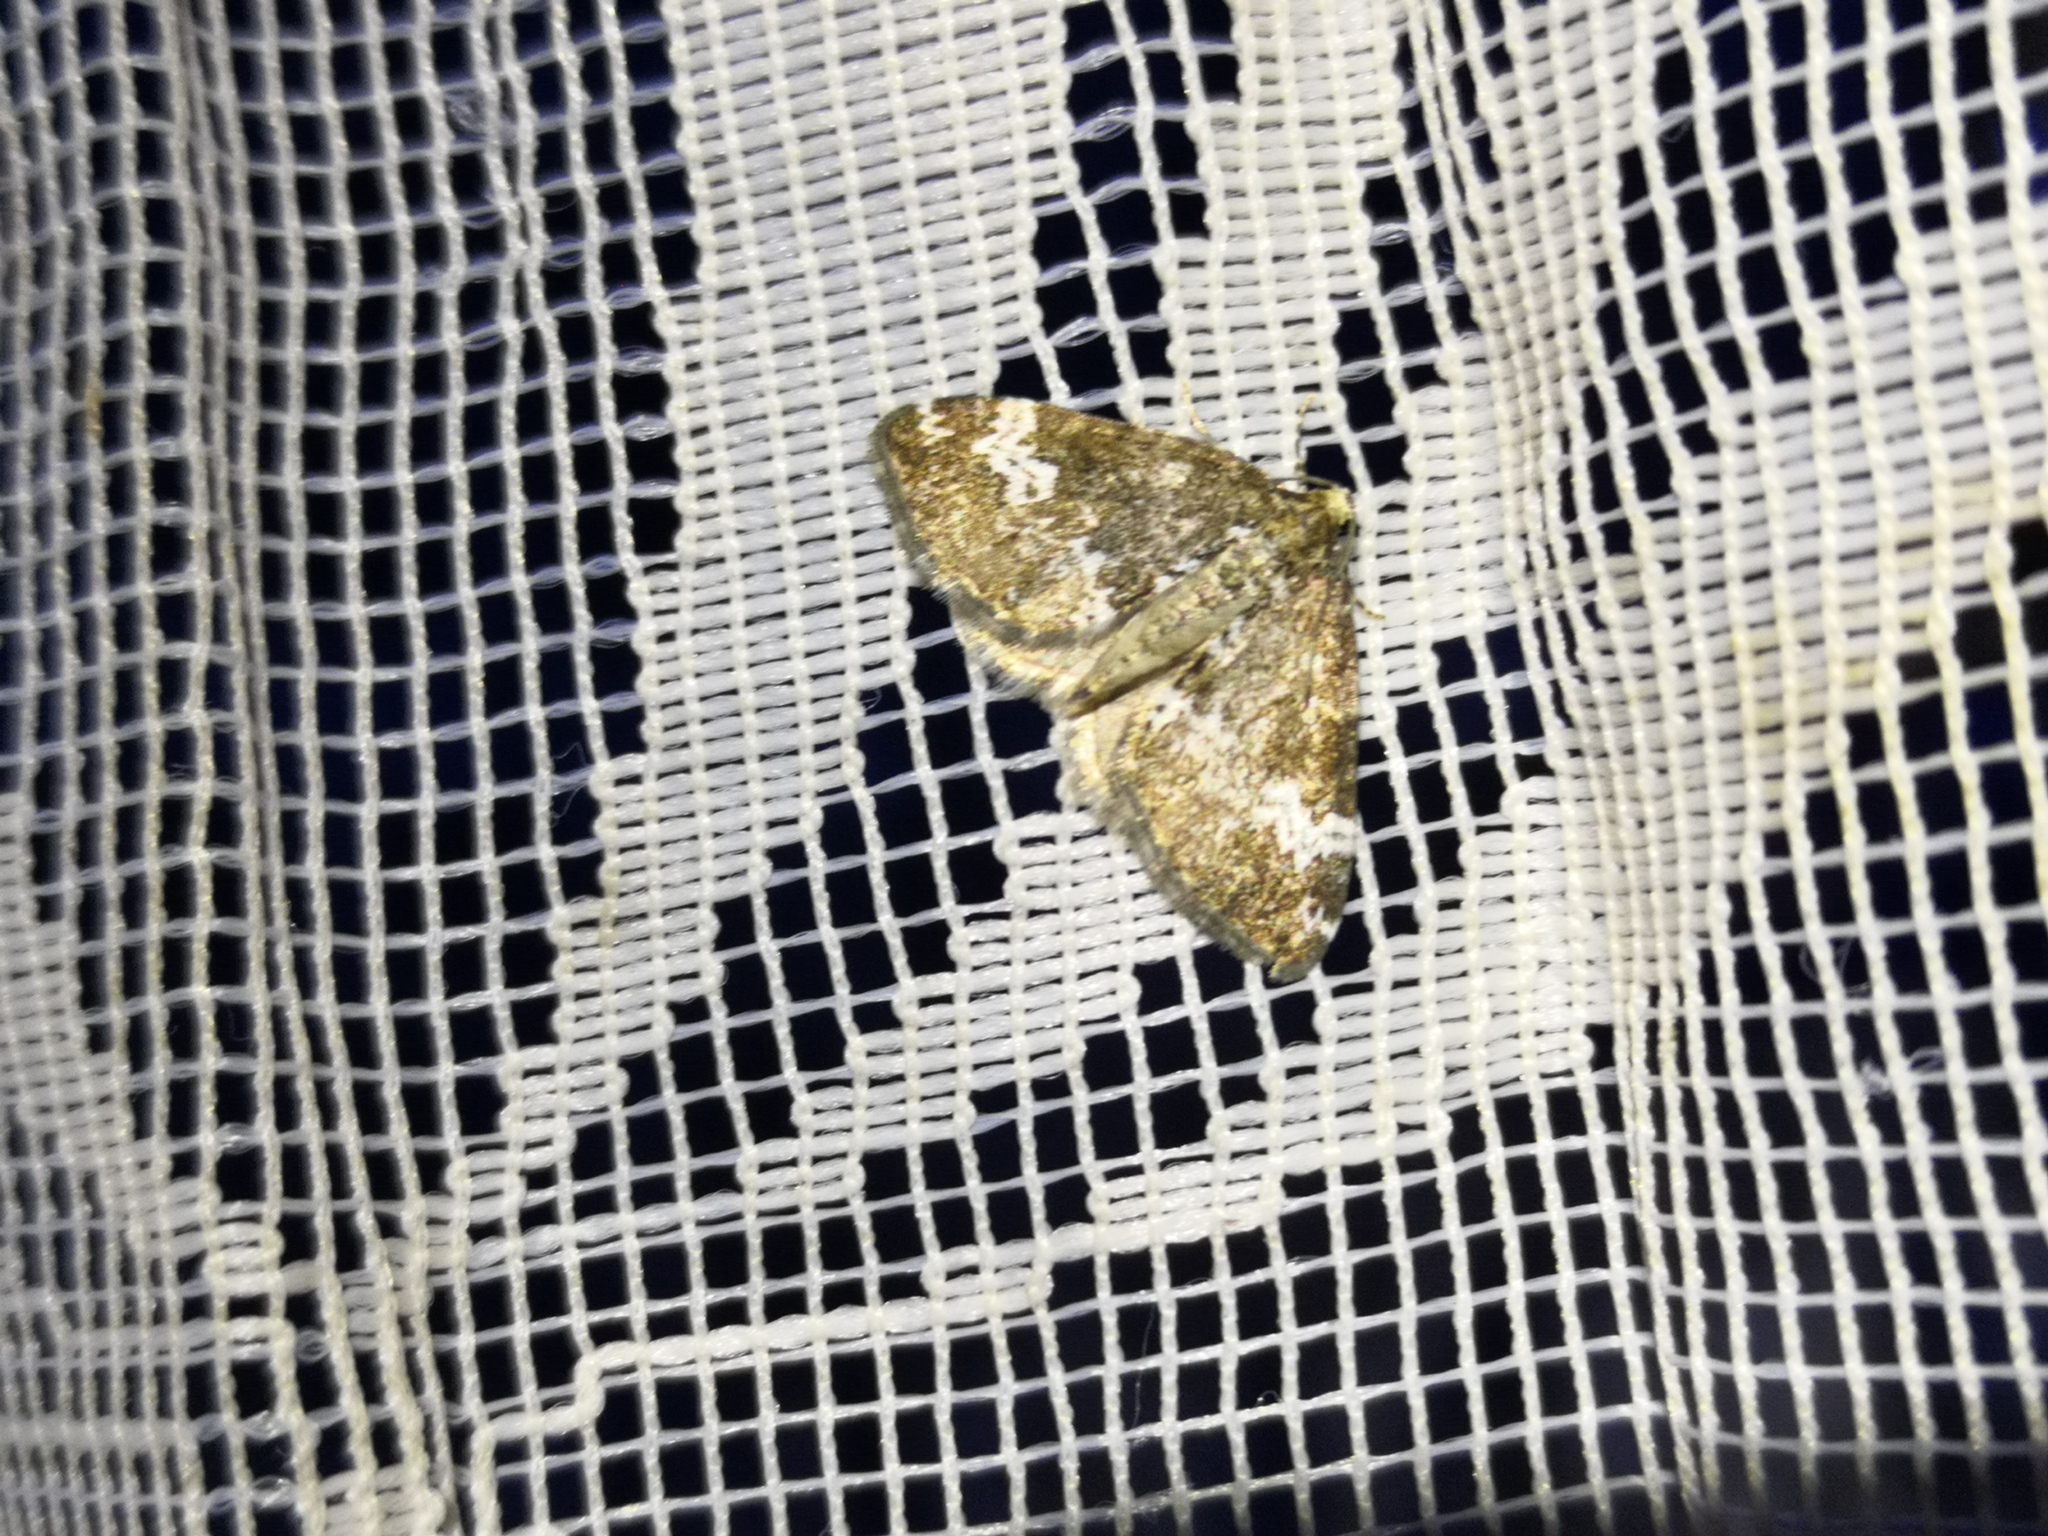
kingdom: Animalia
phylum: Arthropoda
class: Insecta
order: Lepidoptera
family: Geometridae
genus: Perizoma
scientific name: Perizoma alchemillata
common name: Small rivulet
